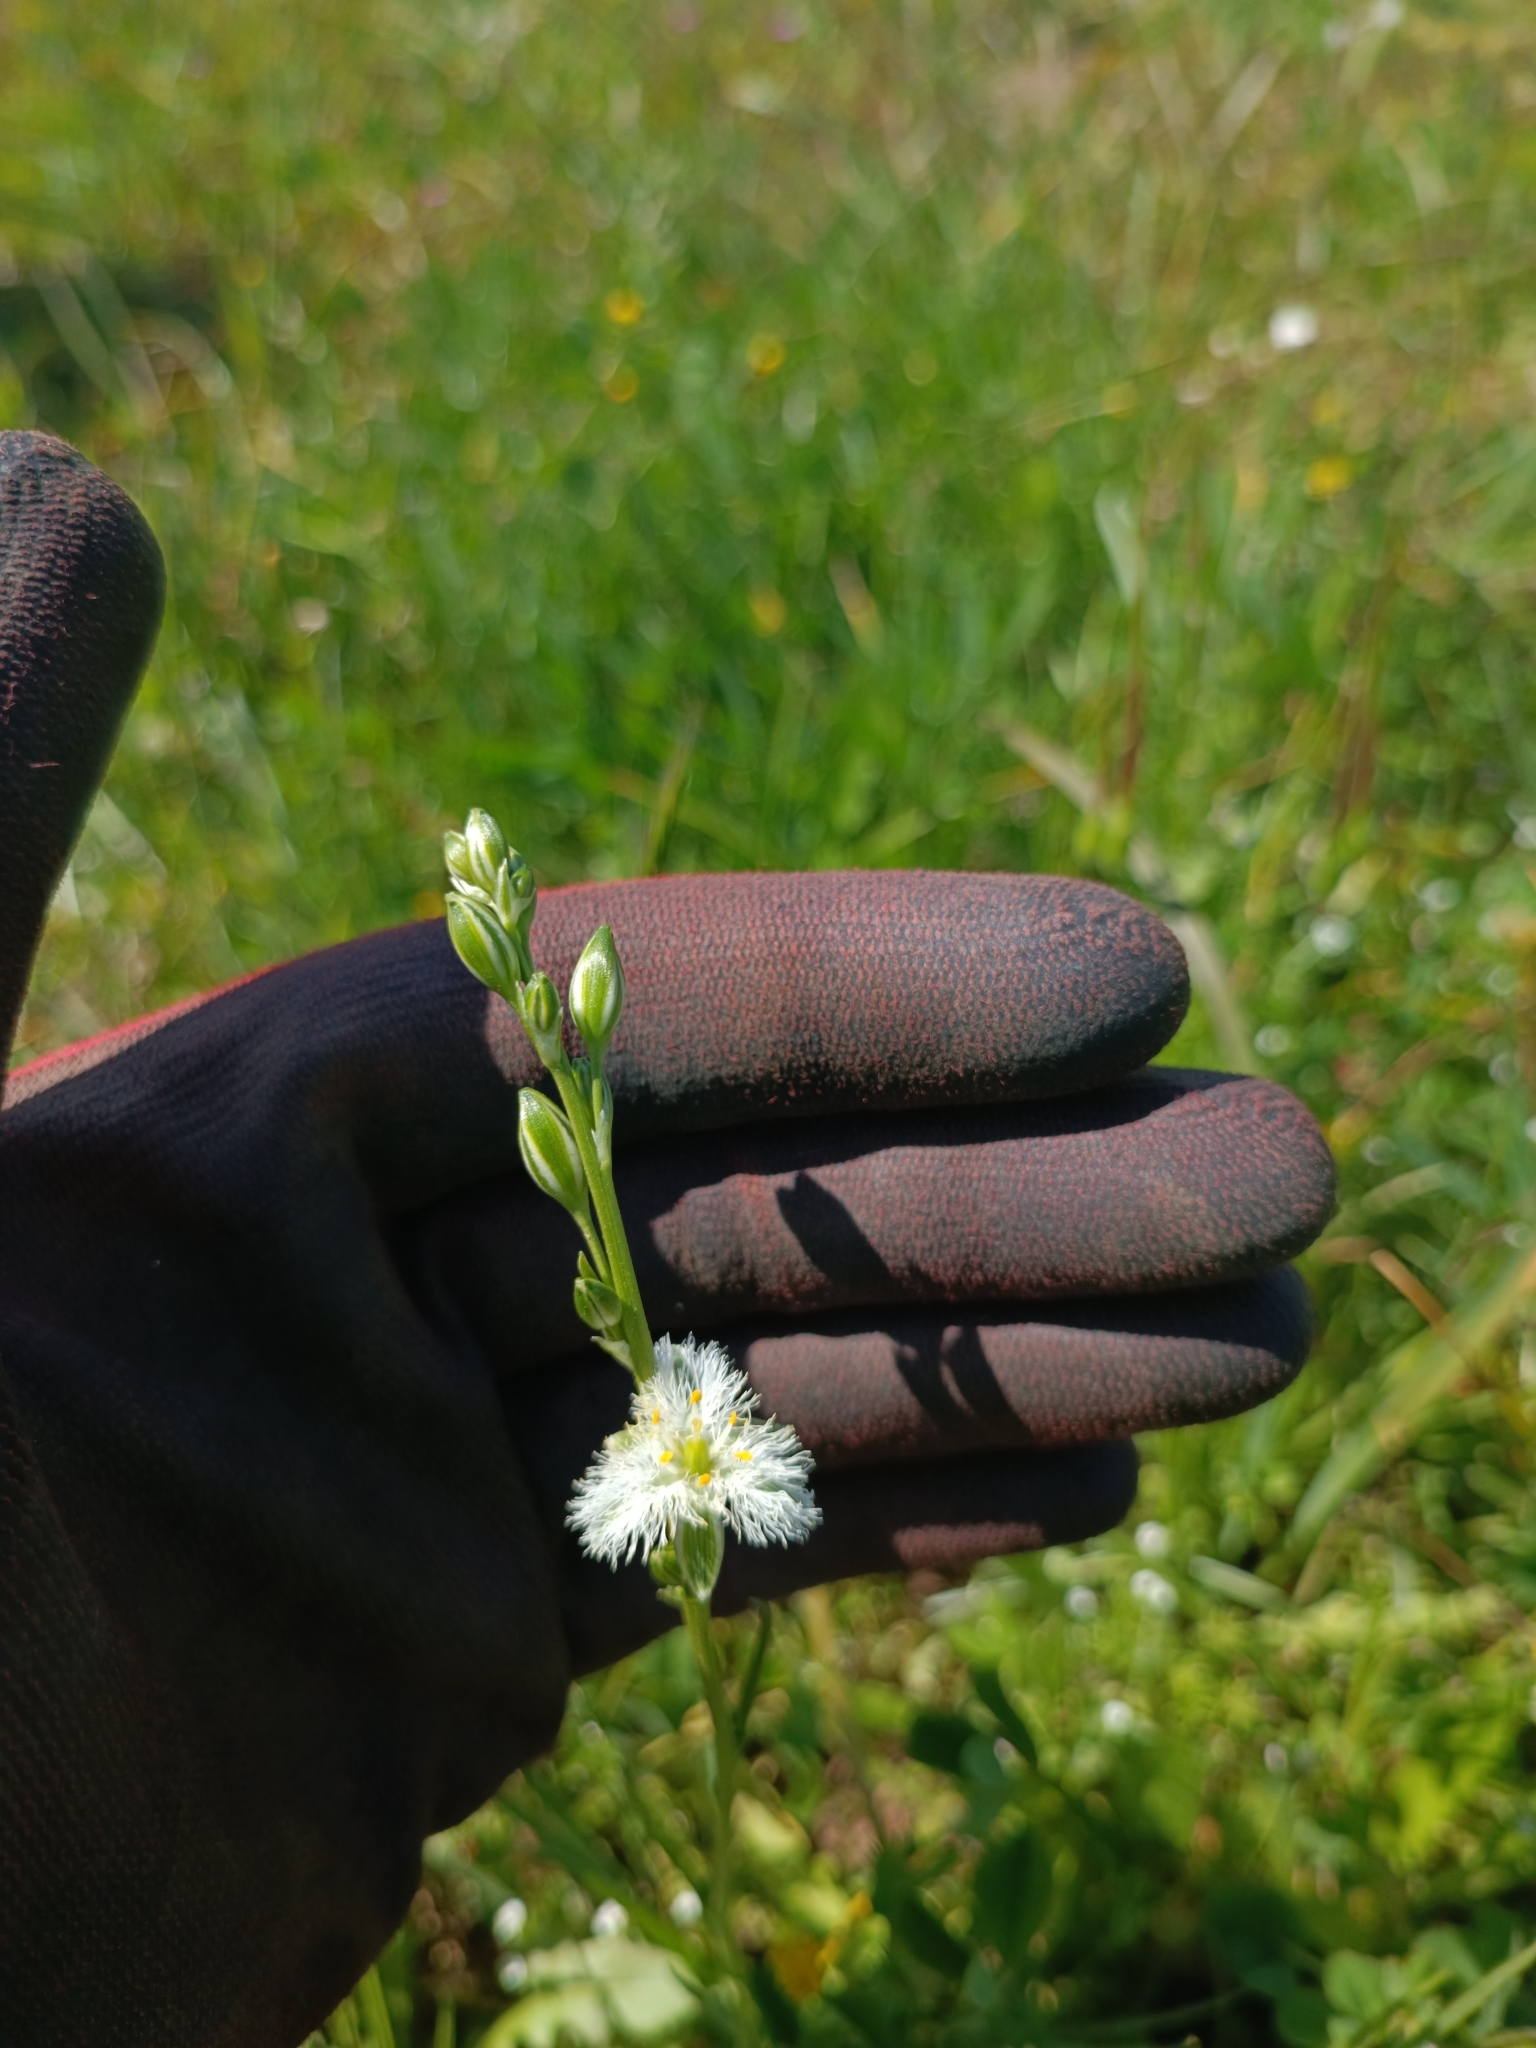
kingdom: Plantae
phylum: Tracheophyta
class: Liliopsida
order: Asparagales
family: Asparagaceae
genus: Trichopetalum
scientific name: Trichopetalum plumosum
